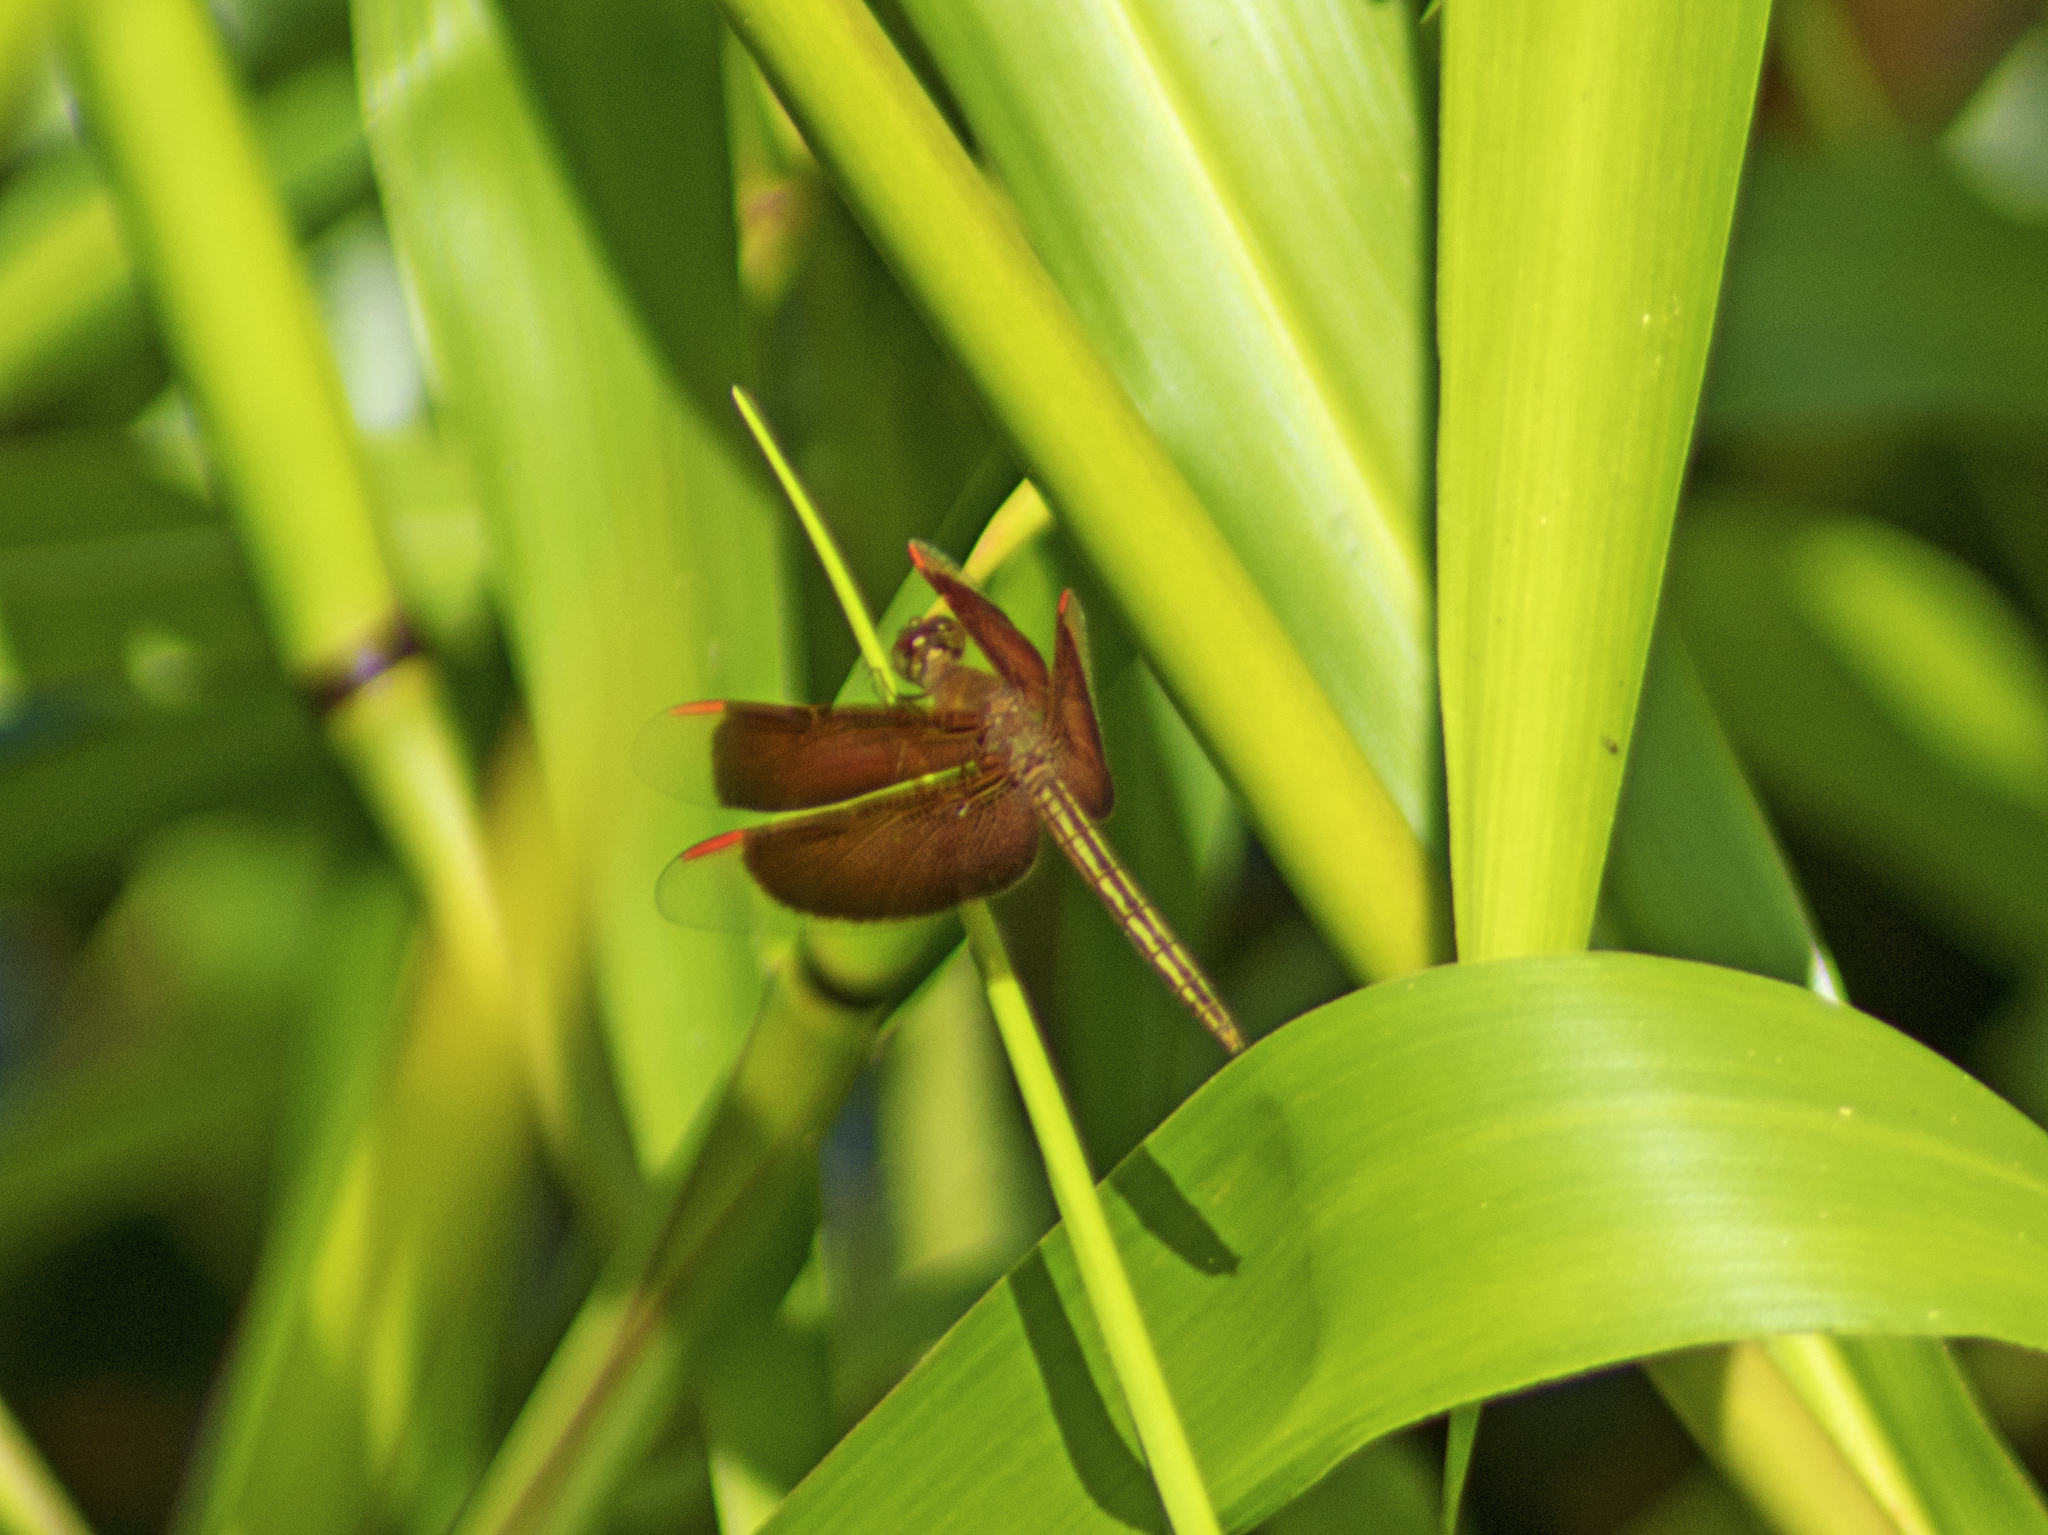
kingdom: Animalia
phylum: Arthropoda
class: Insecta
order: Odonata
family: Libellulidae
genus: Neurothemis
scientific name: Neurothemis stigmatizans
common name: Painted grasshawk
